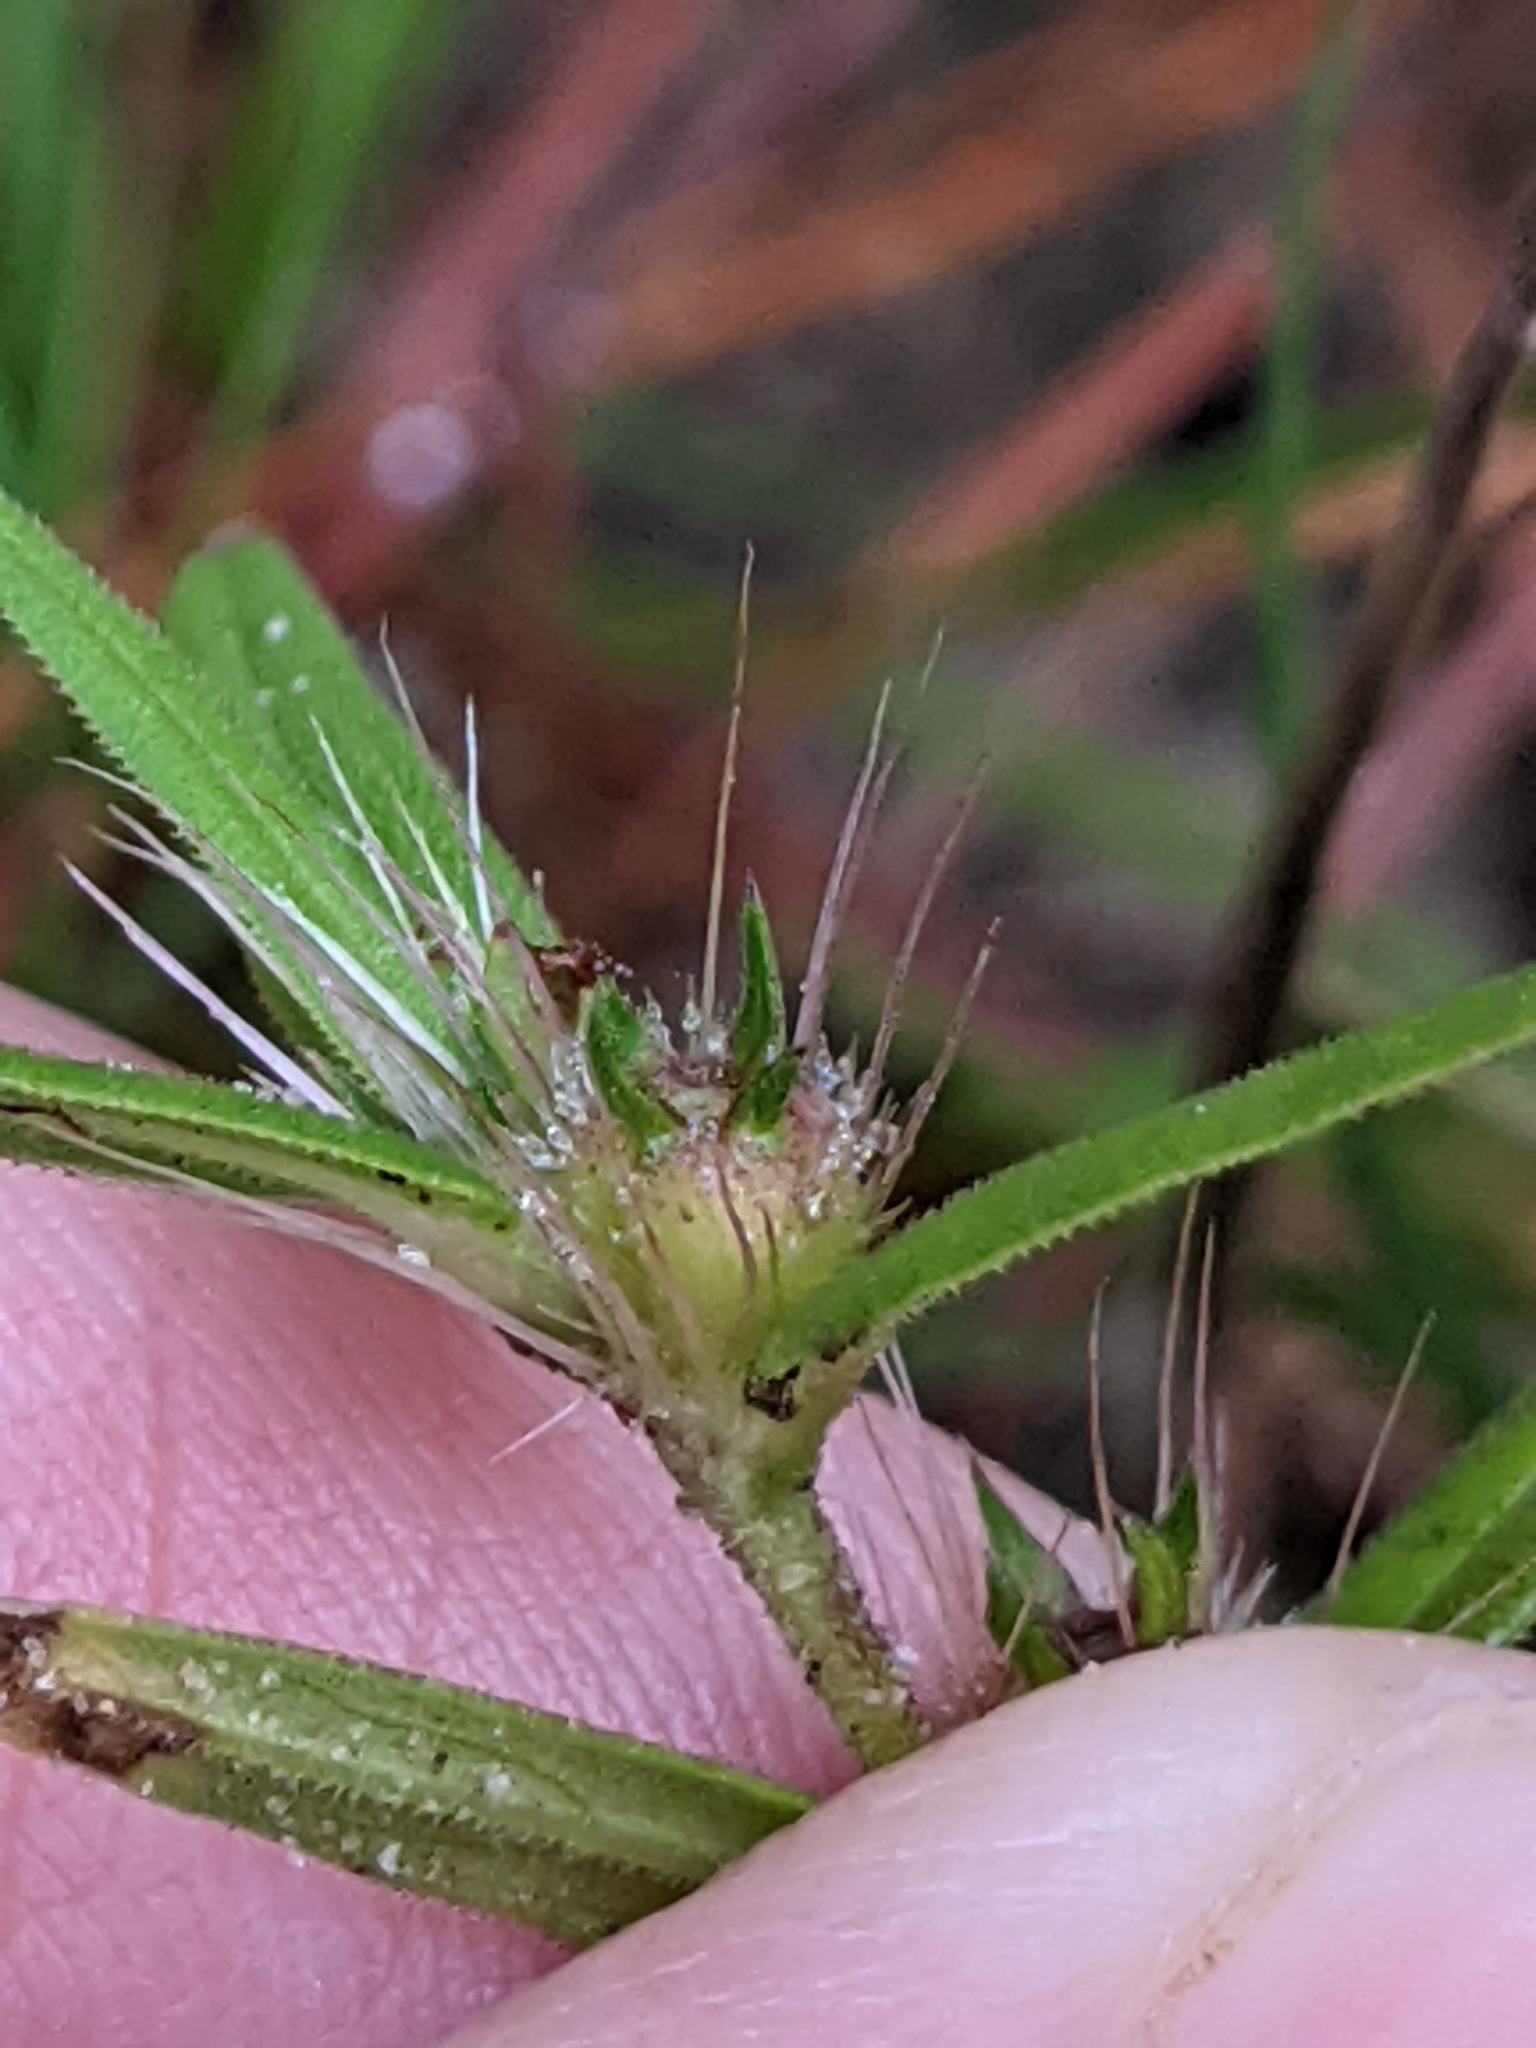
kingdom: Plantae
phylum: Tracheophyta
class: Magnoliopsida
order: Gentianales
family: Rubiaceae
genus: Hexasepalum
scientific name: Hexasepalum teres
